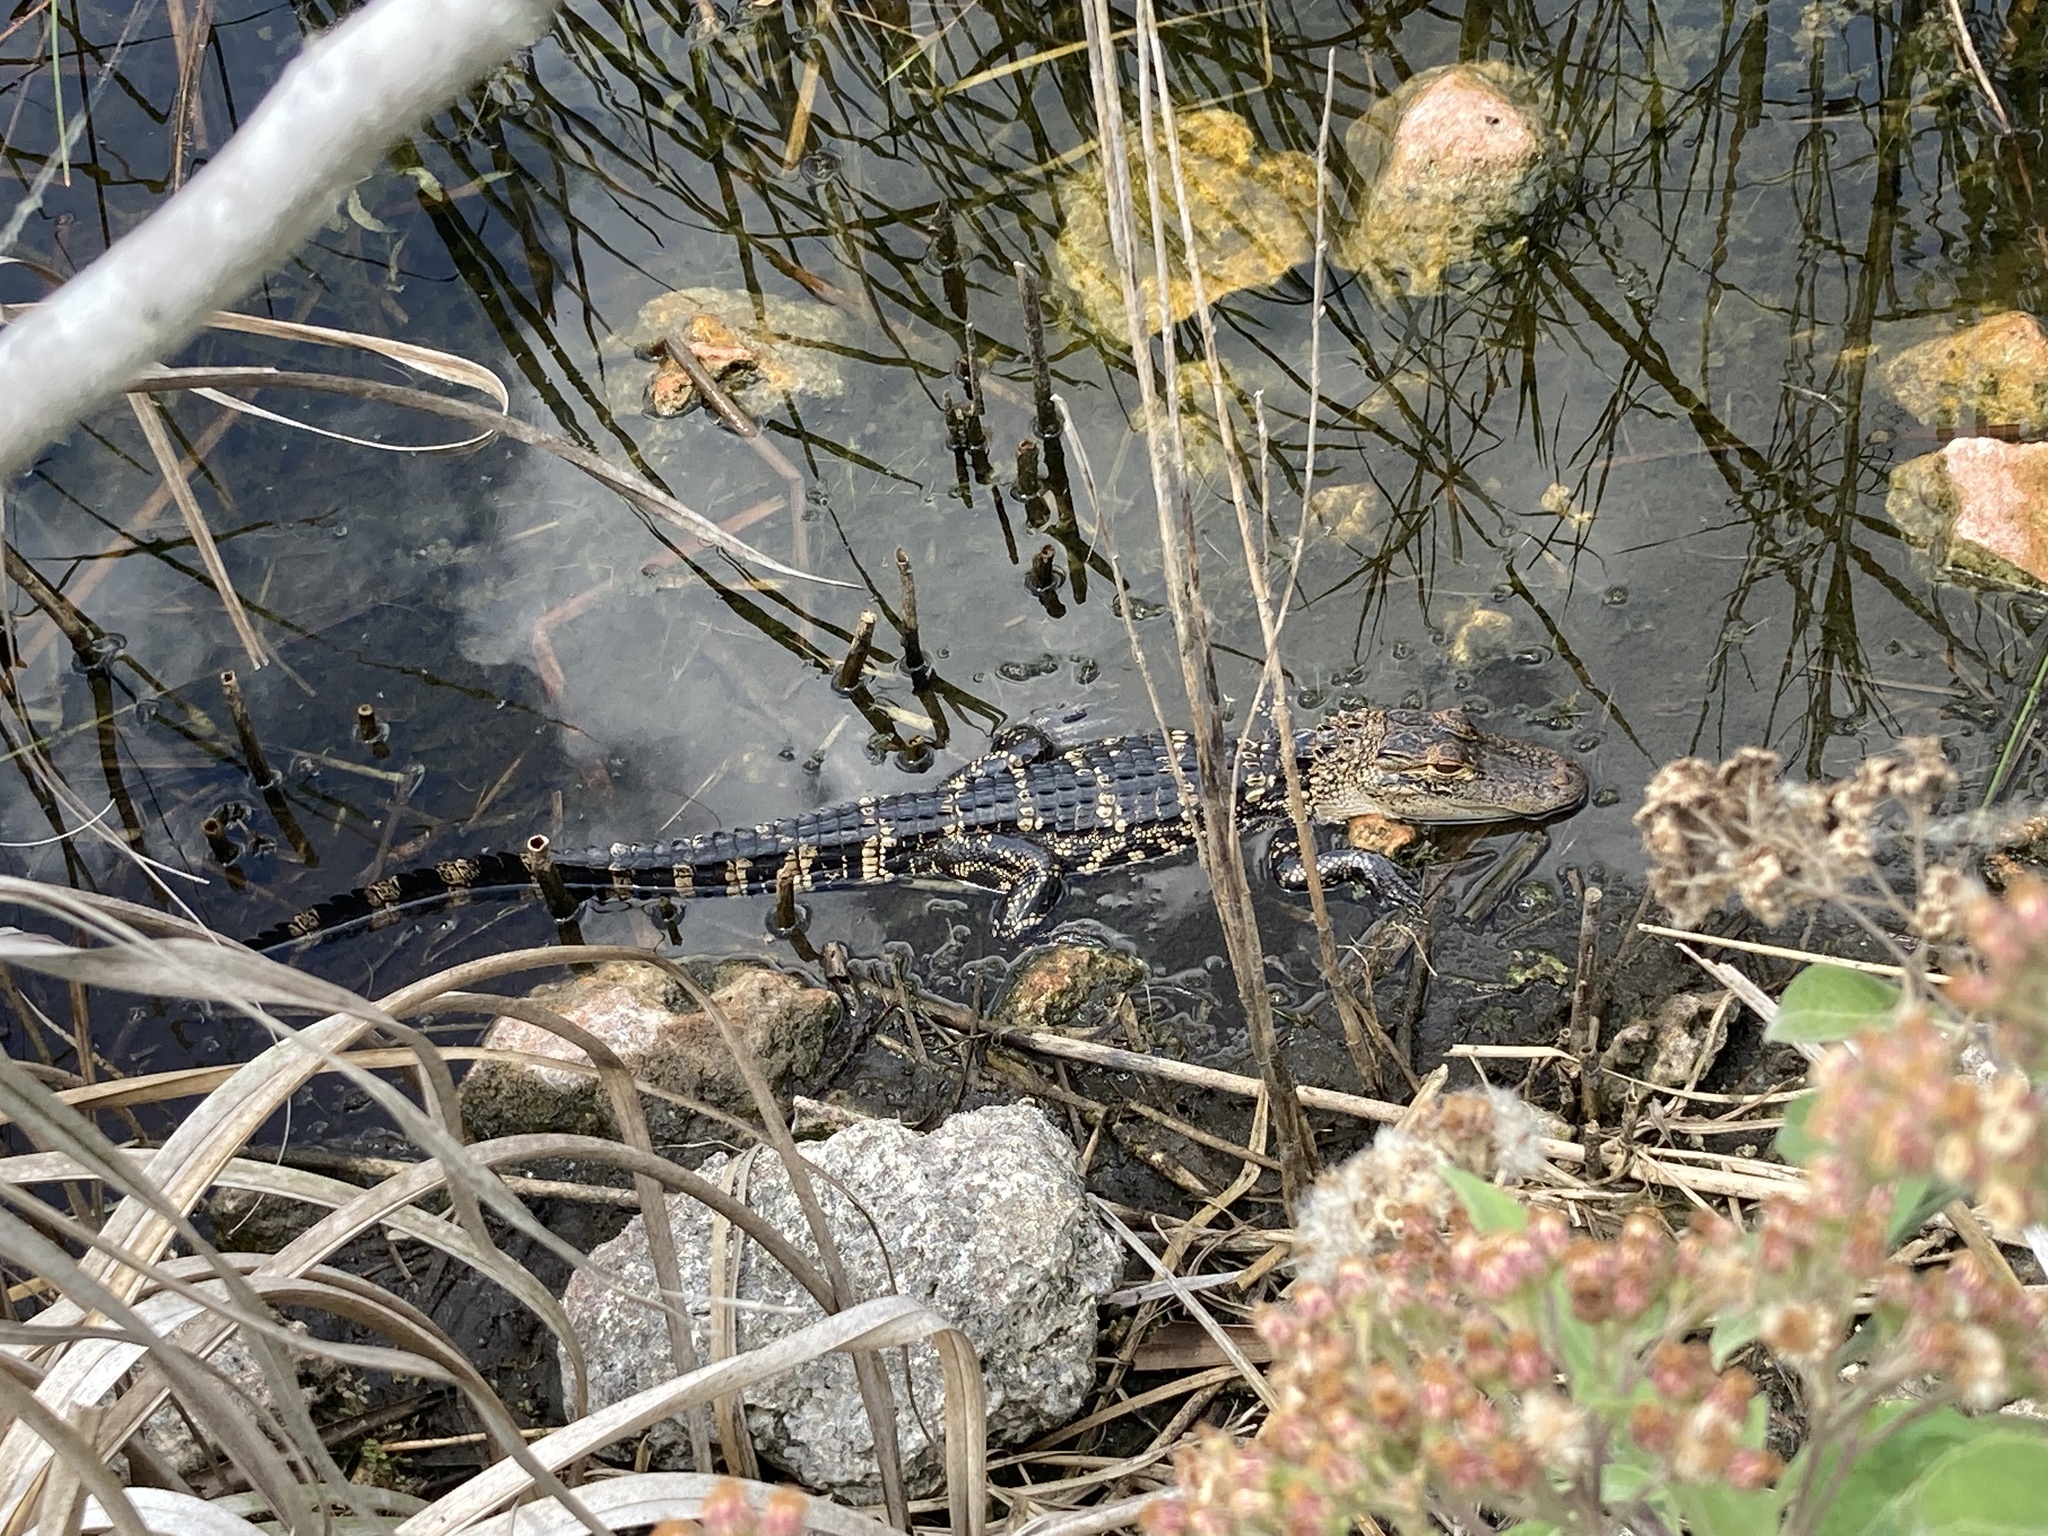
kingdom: Animalia
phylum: Chordata
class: Crocodylia
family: Alligatoridae
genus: Alligator
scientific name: Alligator mississippiensis
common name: American alligator
